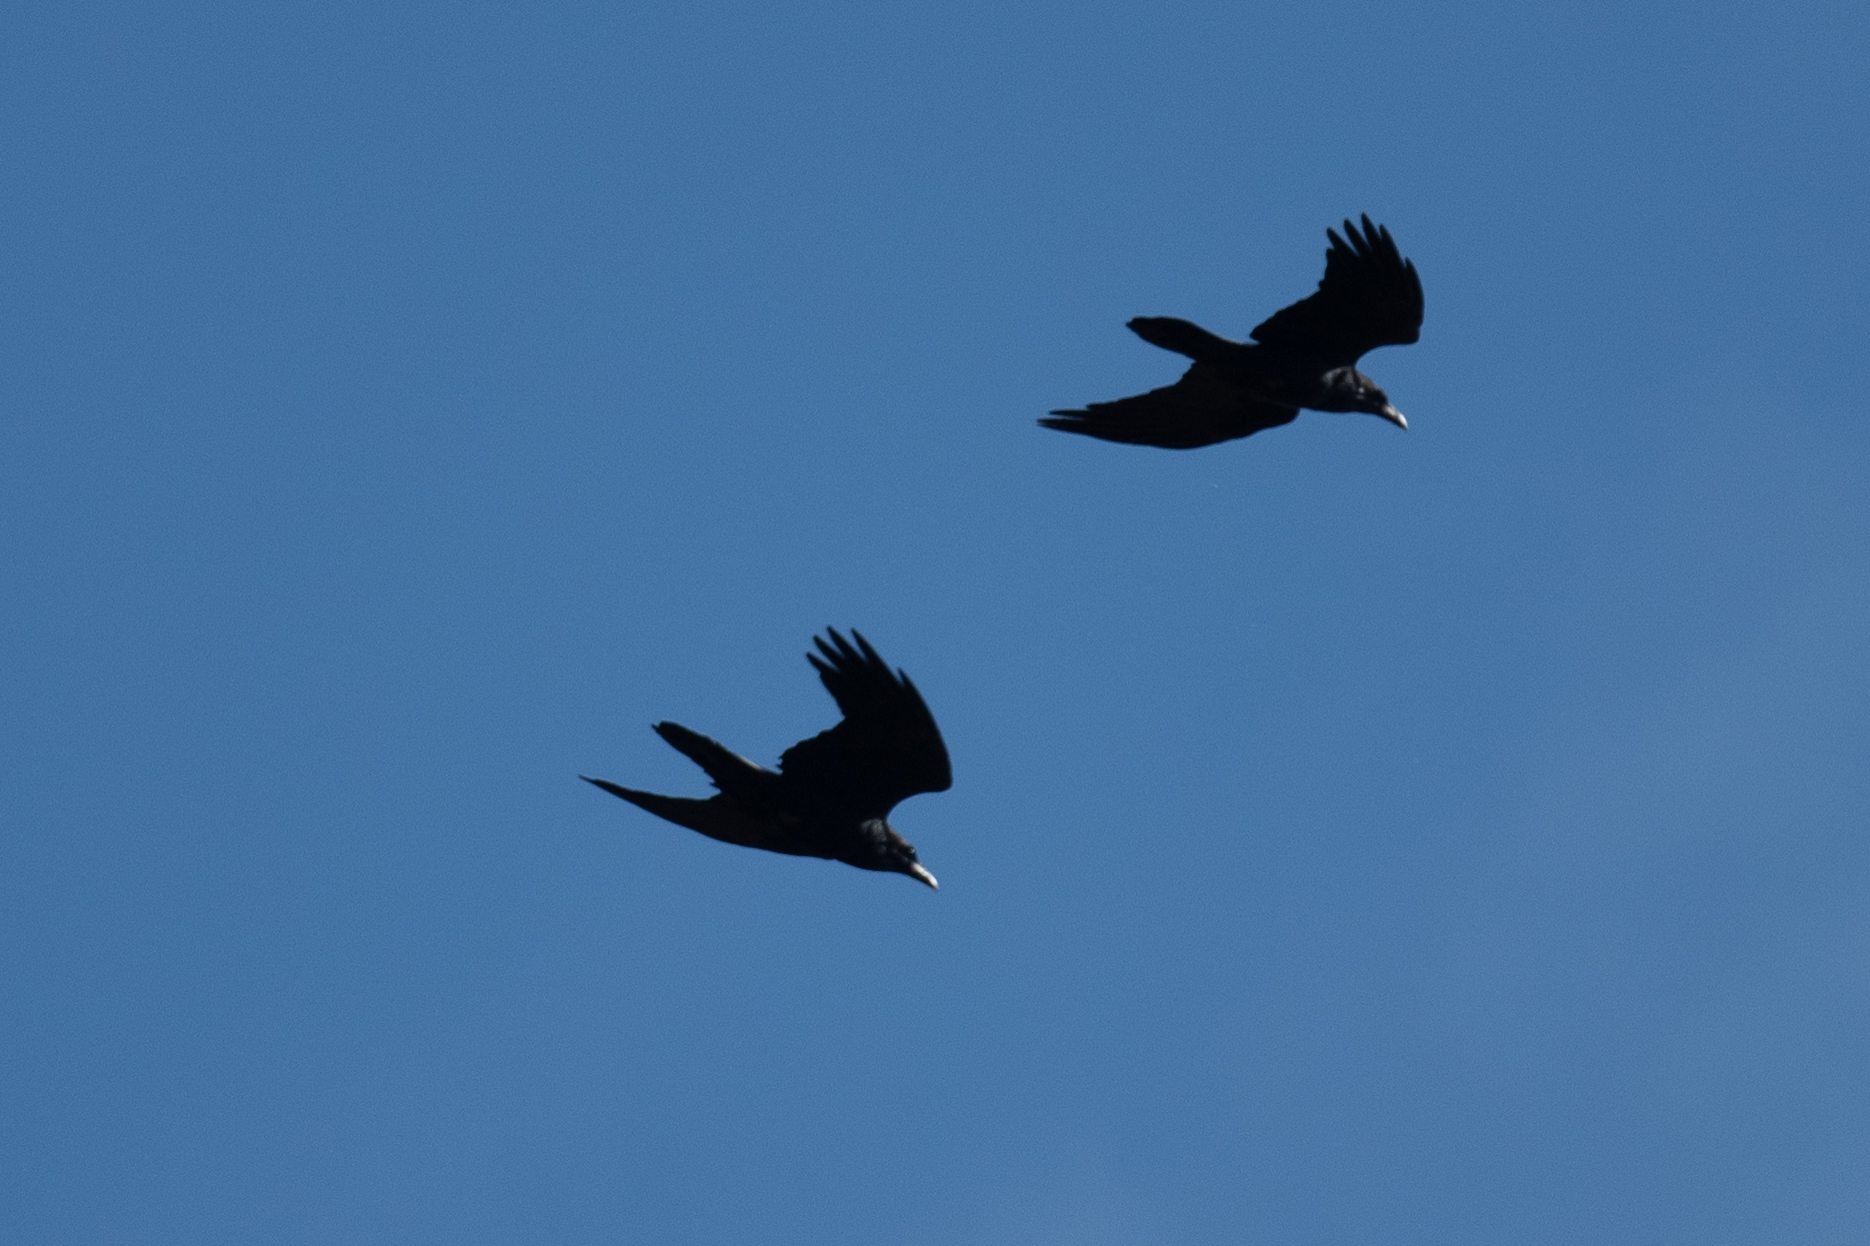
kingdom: Animalia
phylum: Chordata
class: Aves
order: Passeriformes
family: Corvidae
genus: Corvus
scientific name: Corvus corax
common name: Common raven
